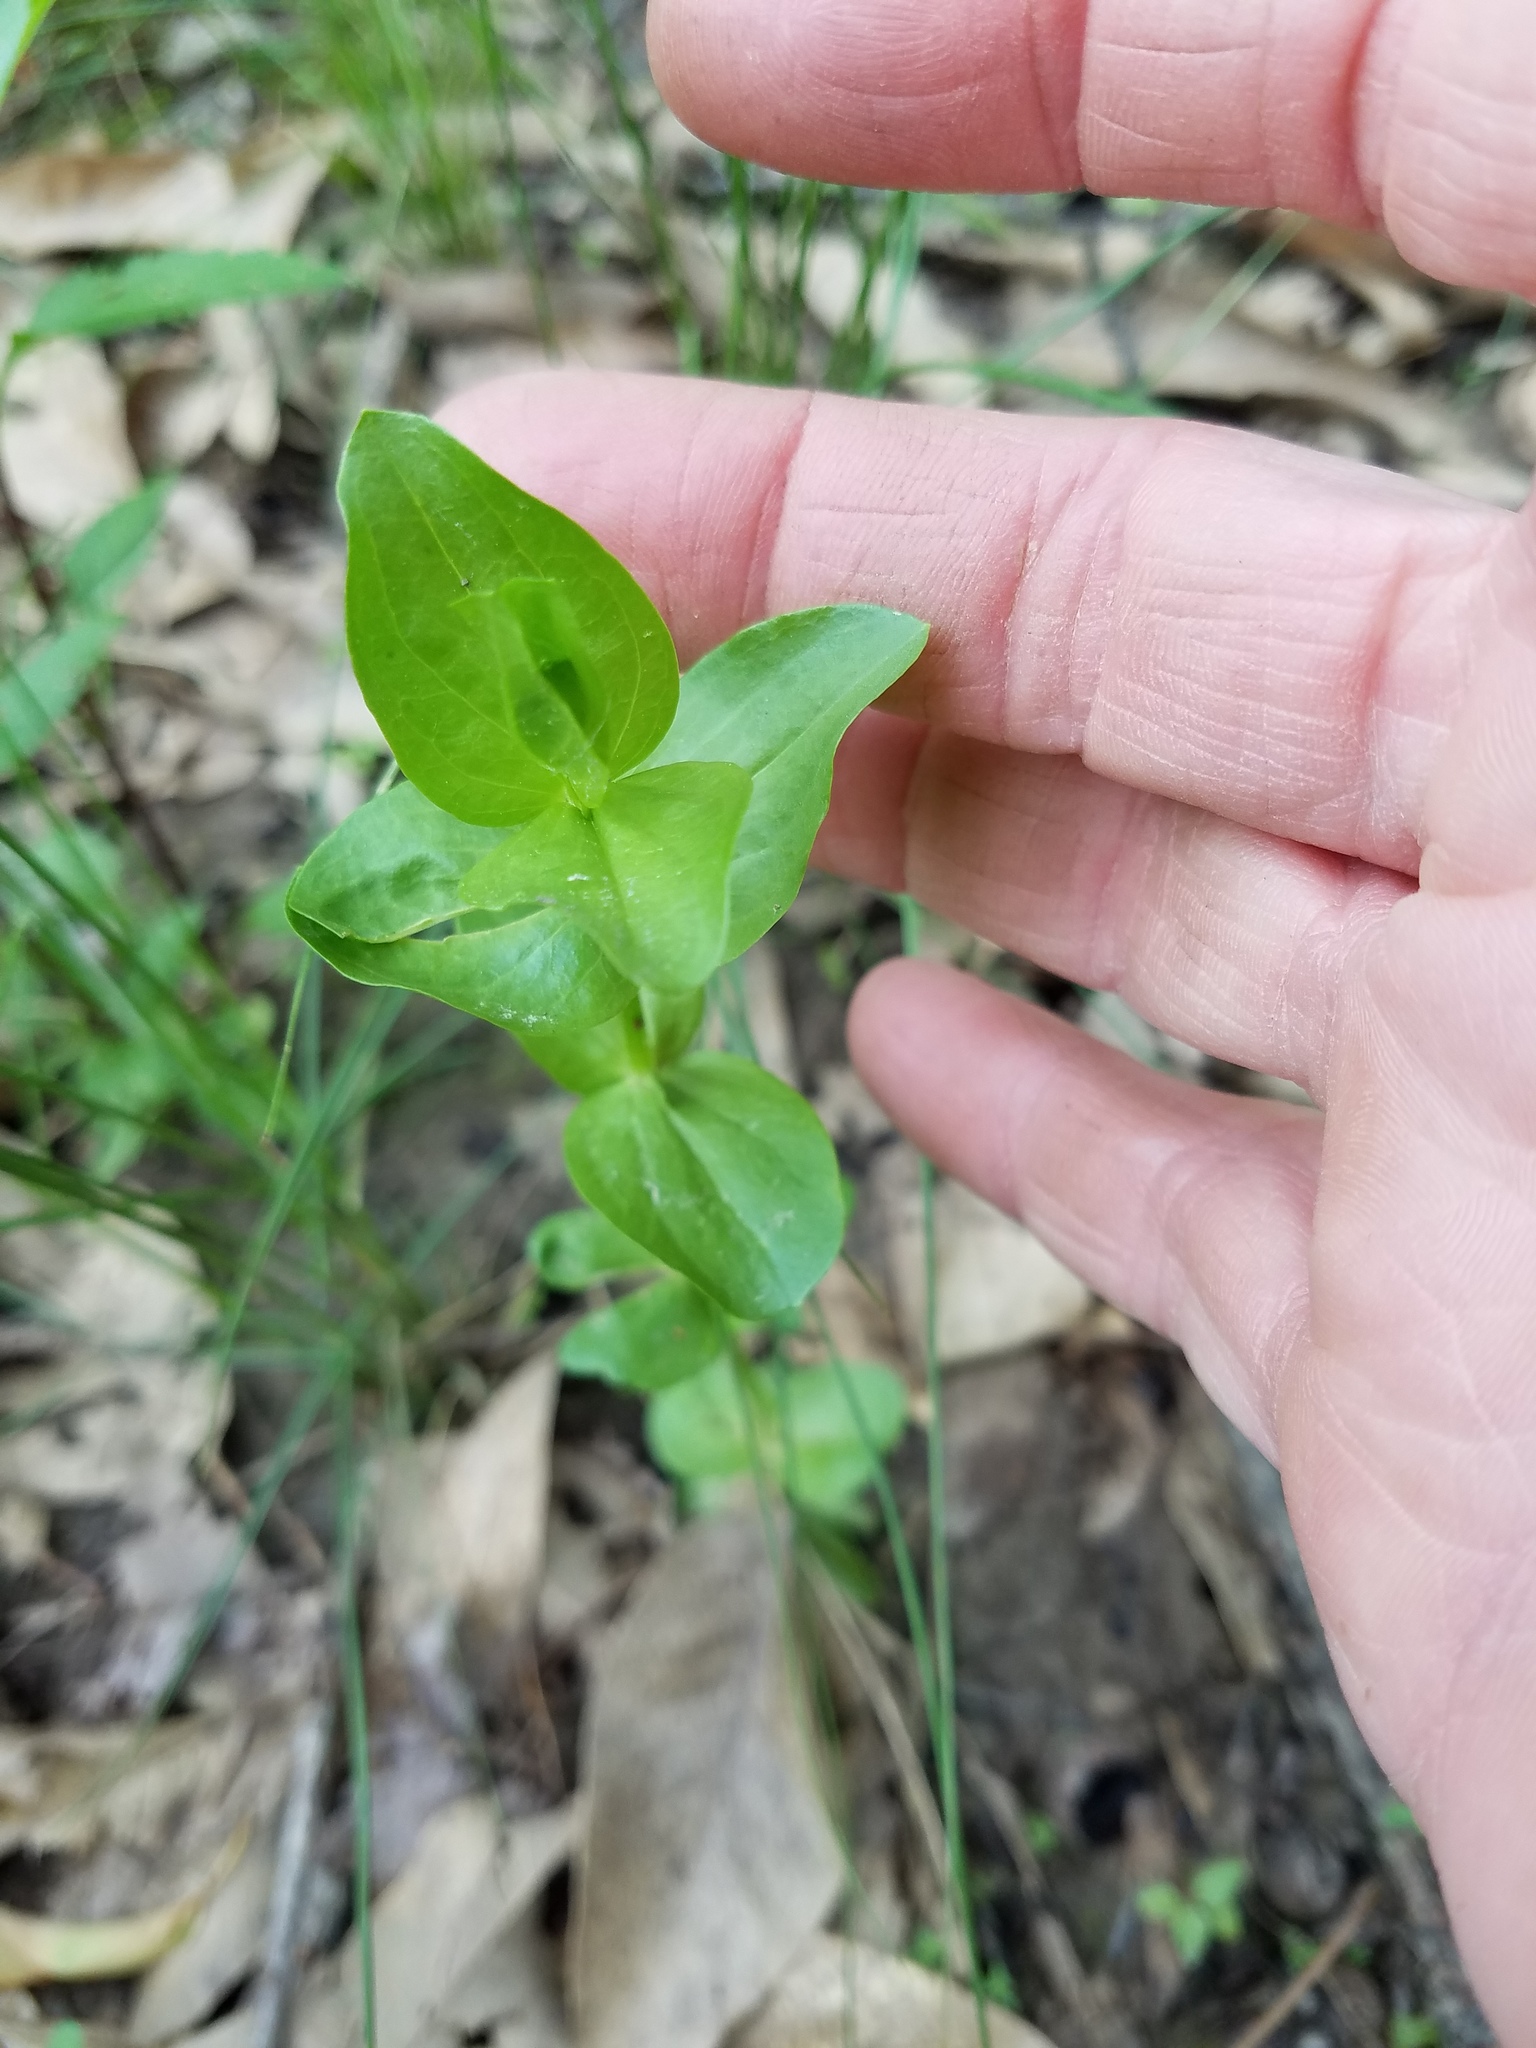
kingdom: Plantae
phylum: Tracheophyta
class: Magnoliopsida
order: Gentianales
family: Gentianaceae
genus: Sabatia
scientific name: Sabatia angularis
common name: Rose-pink
